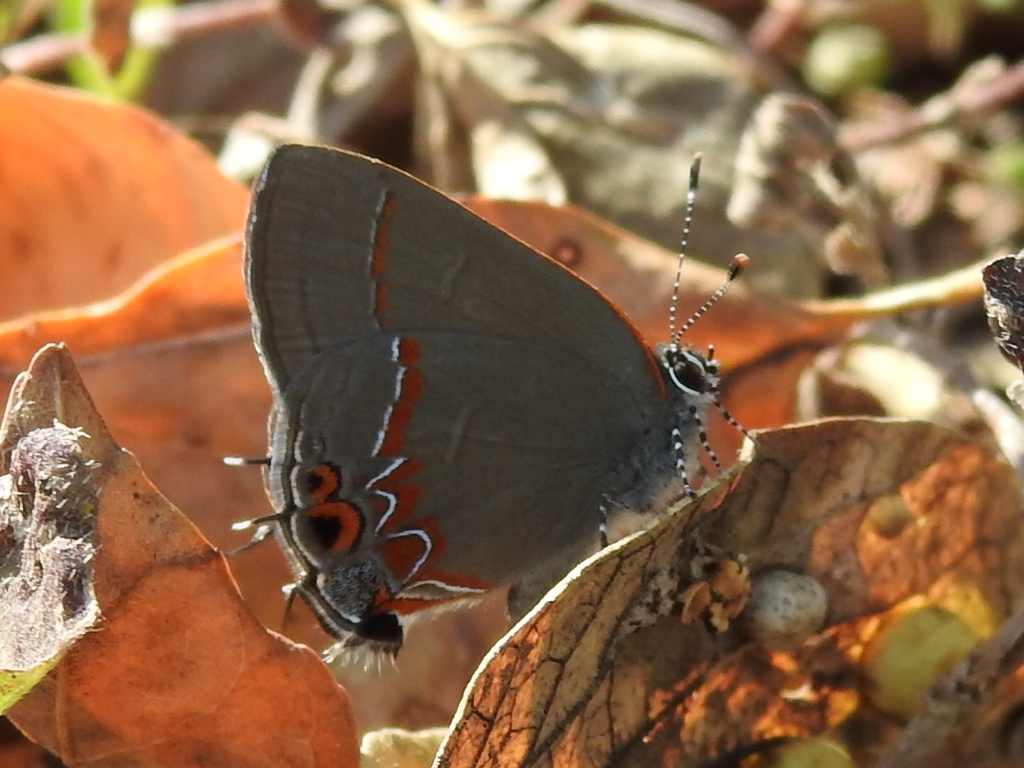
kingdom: Animalia
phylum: Arthropoda
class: Insecta
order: Lepidoptera
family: Lycaenidae
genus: Calycopis
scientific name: Calycopis isobeon
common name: Dusky-blue groundstreak
